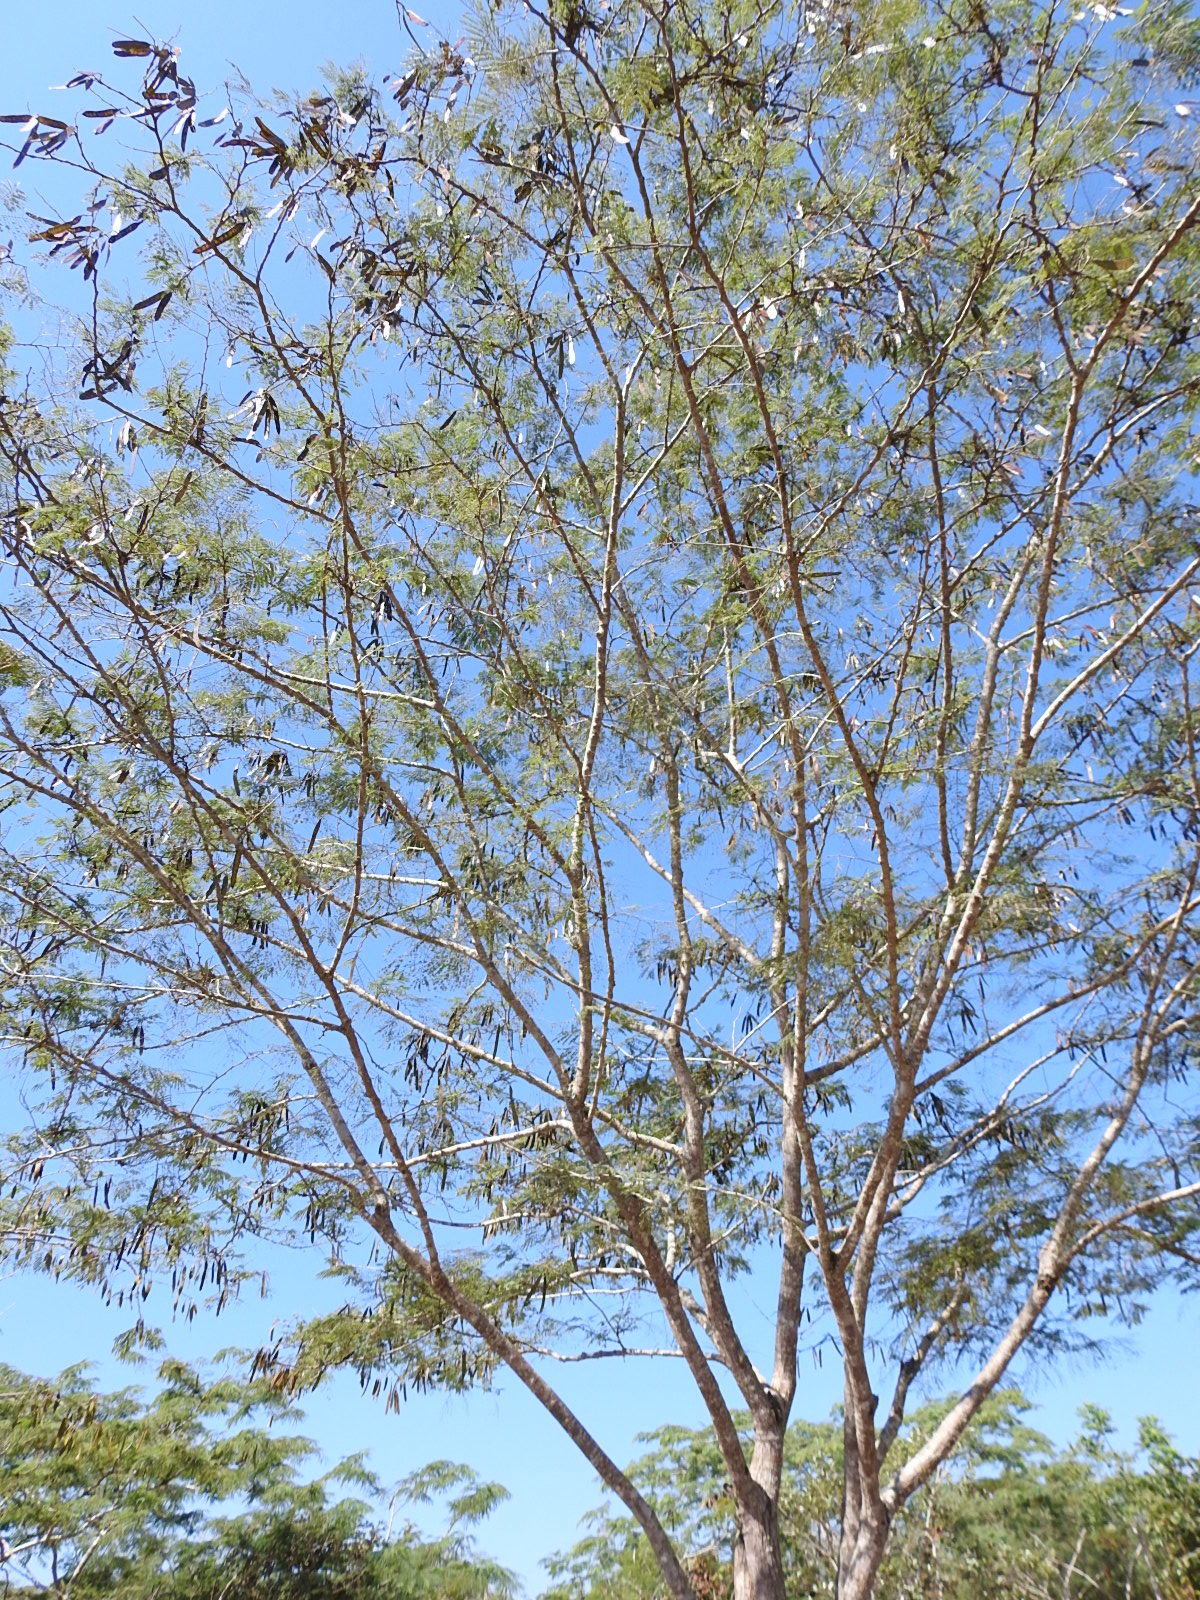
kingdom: Plantae
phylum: Tracheophyta
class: Magnoliopsida
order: Fabales
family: Fabaceae
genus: Leucaena
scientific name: Leucaena cuspidata
